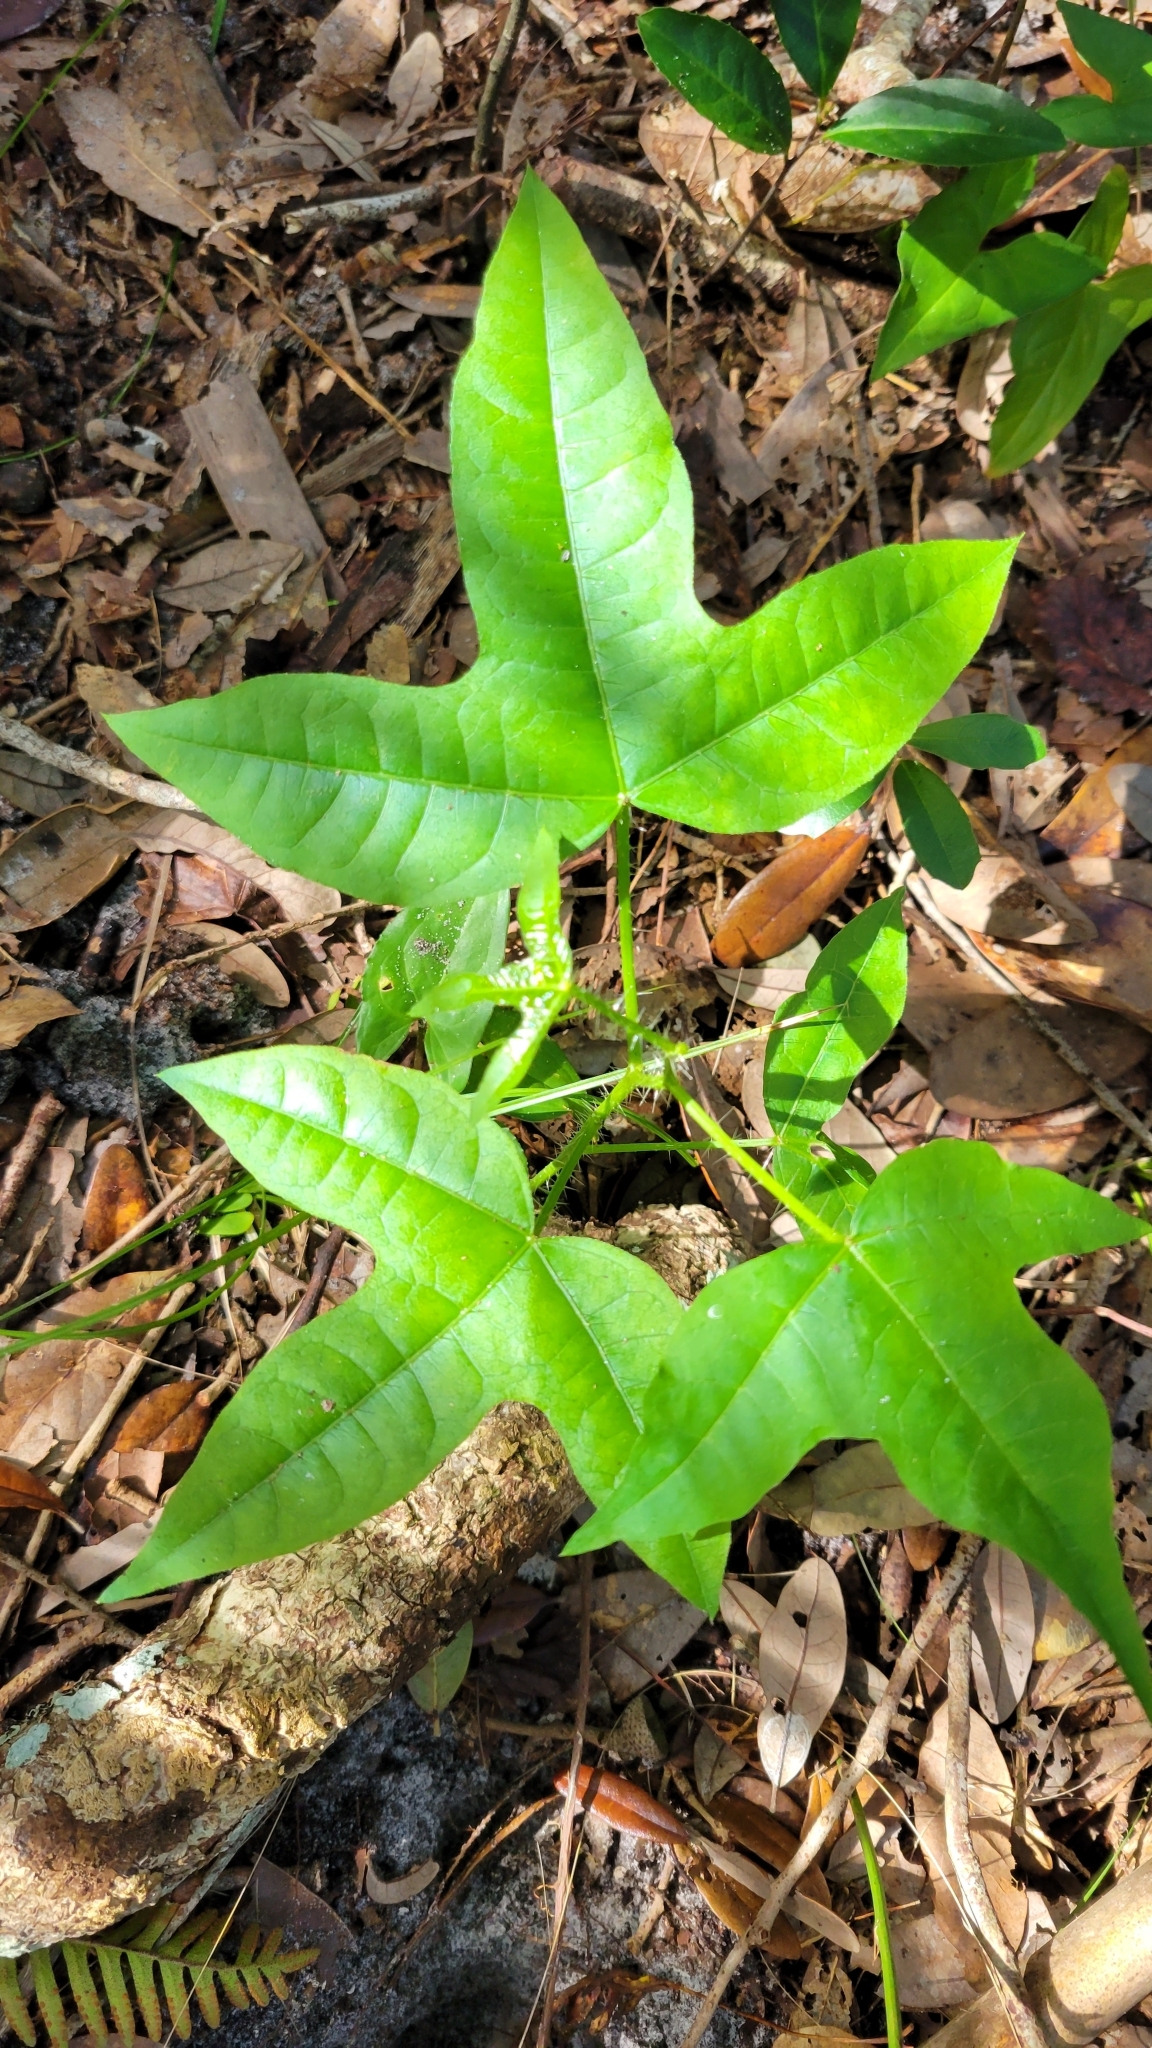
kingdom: Plantae
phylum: Tracheophyta
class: Magnoliopsida
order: Malpighiales
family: Euphorbiaceae
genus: Cnidoscolus
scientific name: Cnidoscolus stimulosus
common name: Bull-nettle
